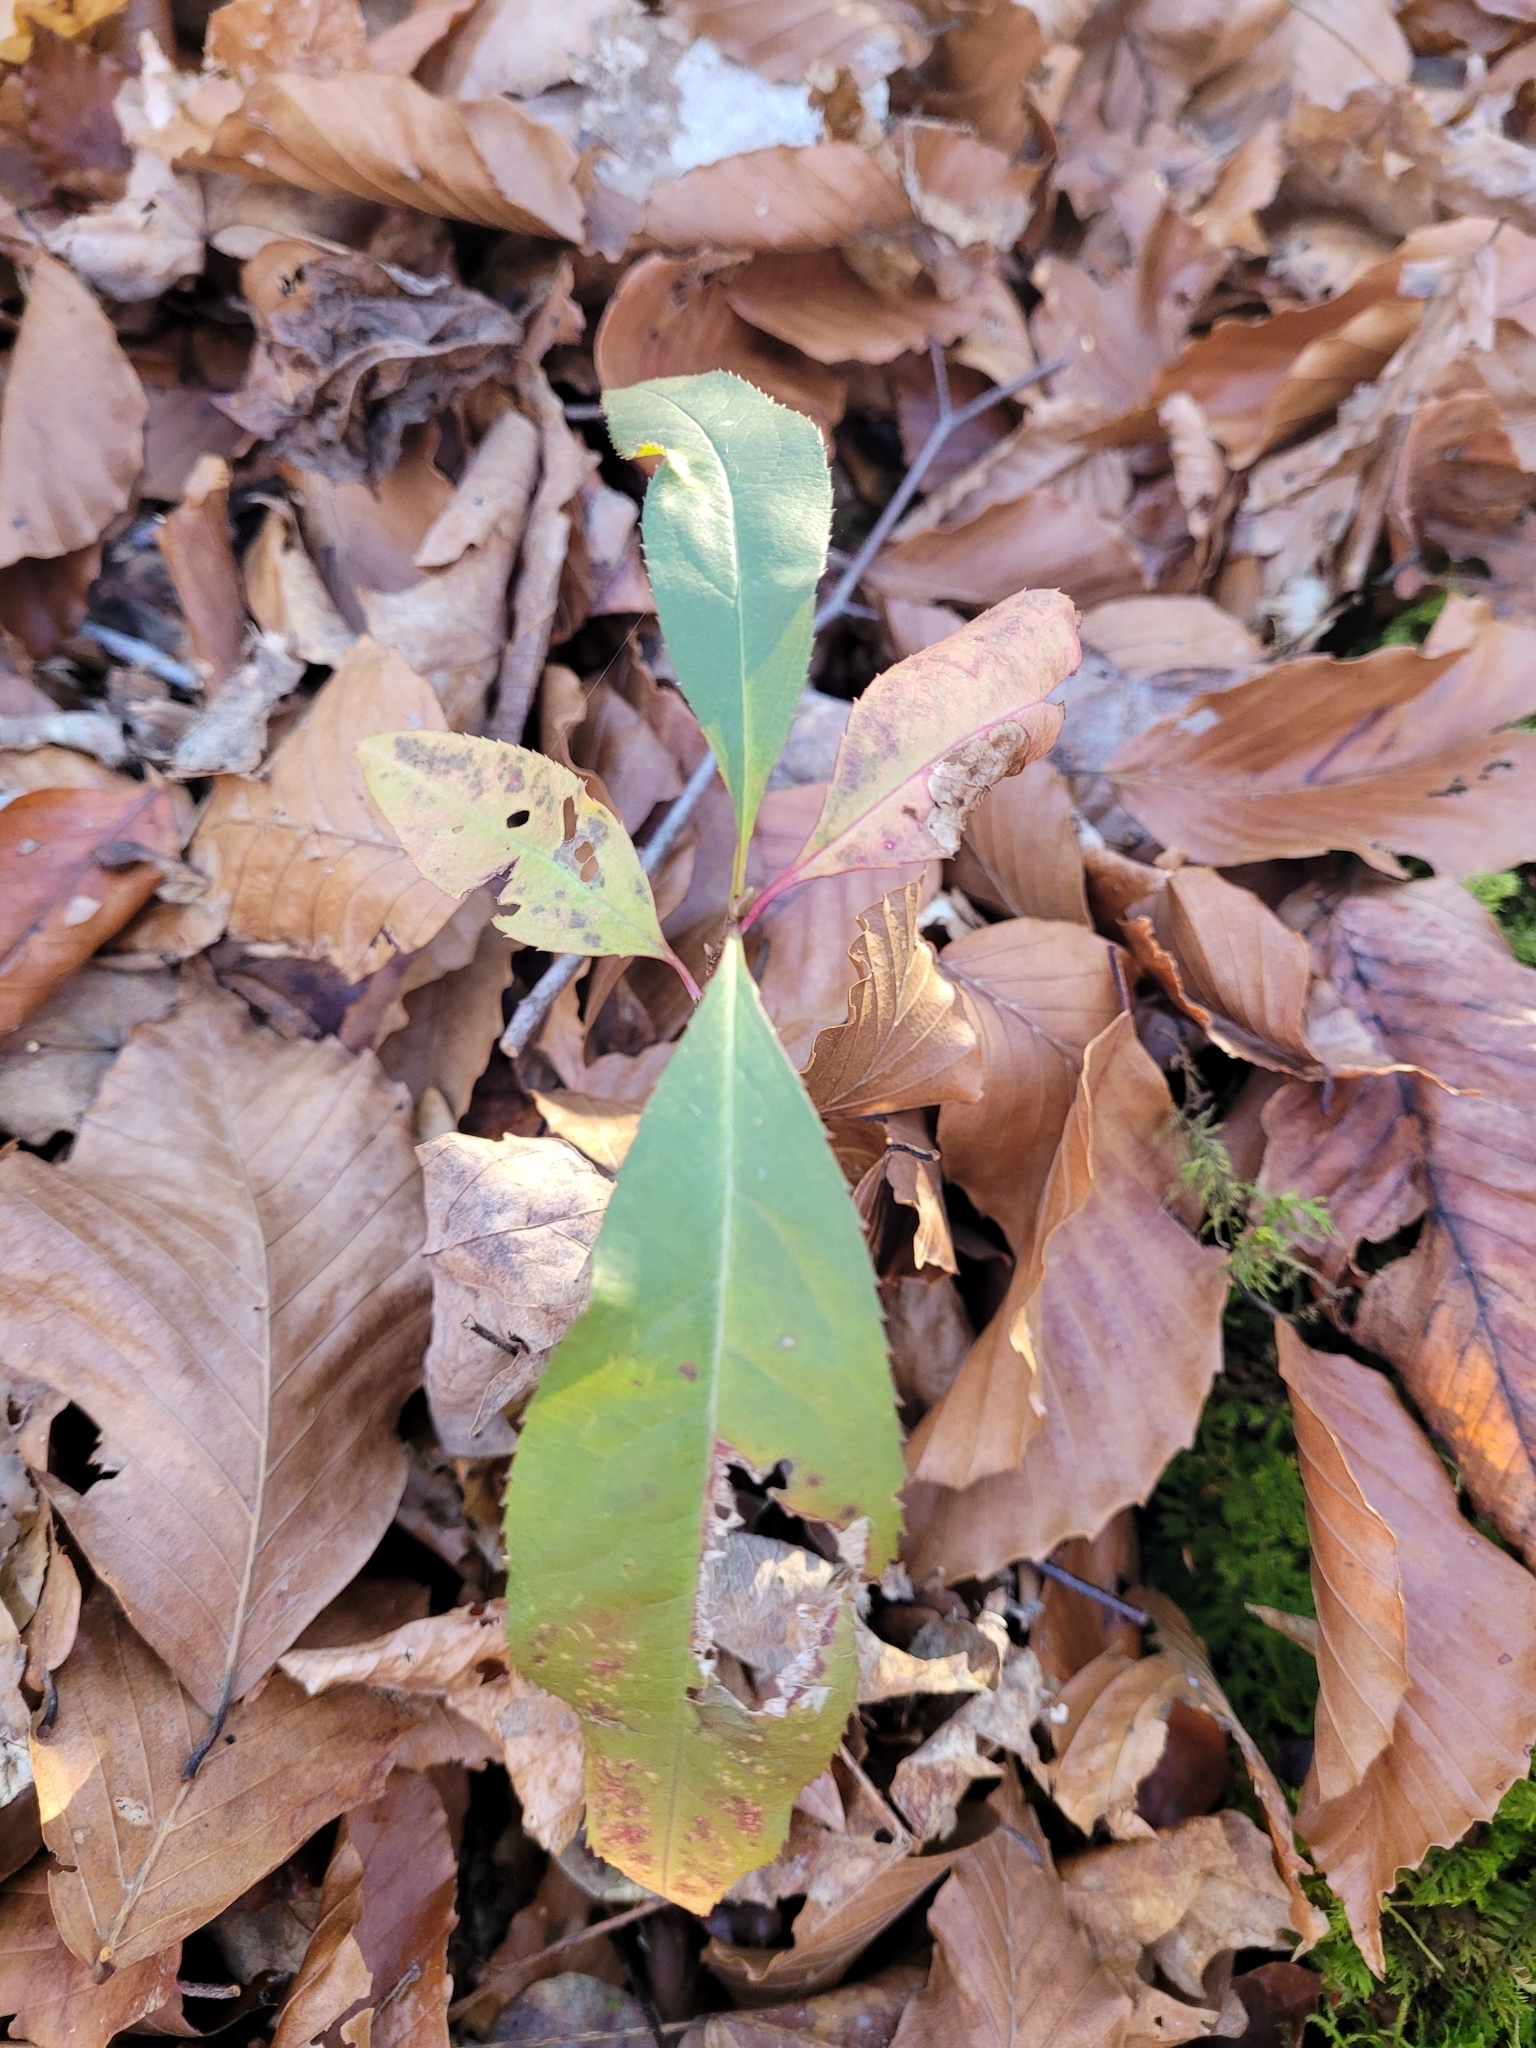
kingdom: Plantae
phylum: Tracheophyta
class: Magnoliopsida
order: Rosales
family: Rosaceae
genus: Prunus
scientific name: Prunus serotina
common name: Black cherry
